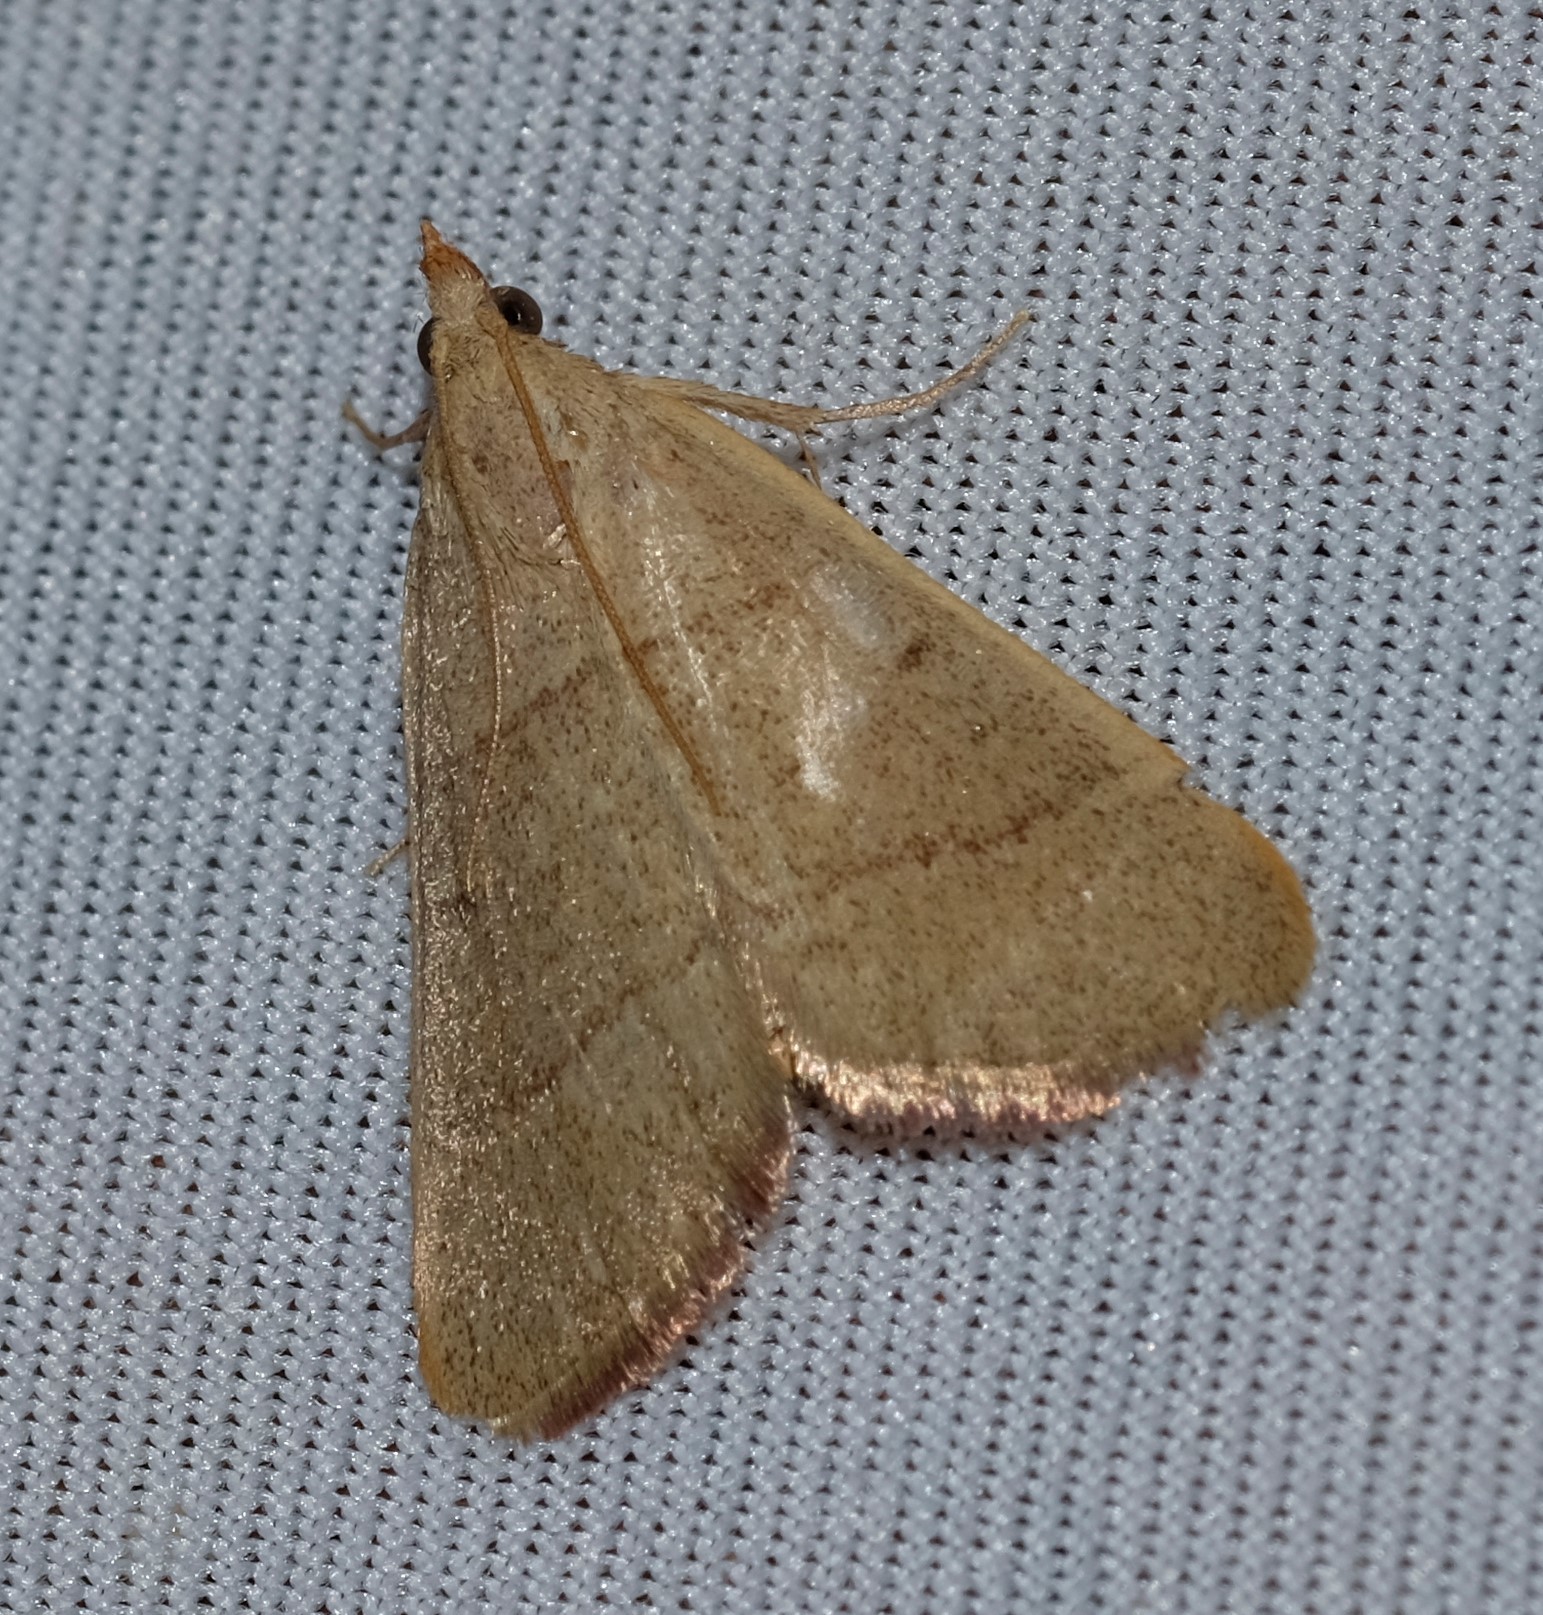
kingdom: Animalia
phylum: Arthropoda
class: Insecta
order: Lepidoptera
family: Pyralidae
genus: Hypsopygia
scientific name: Hypsopygia
